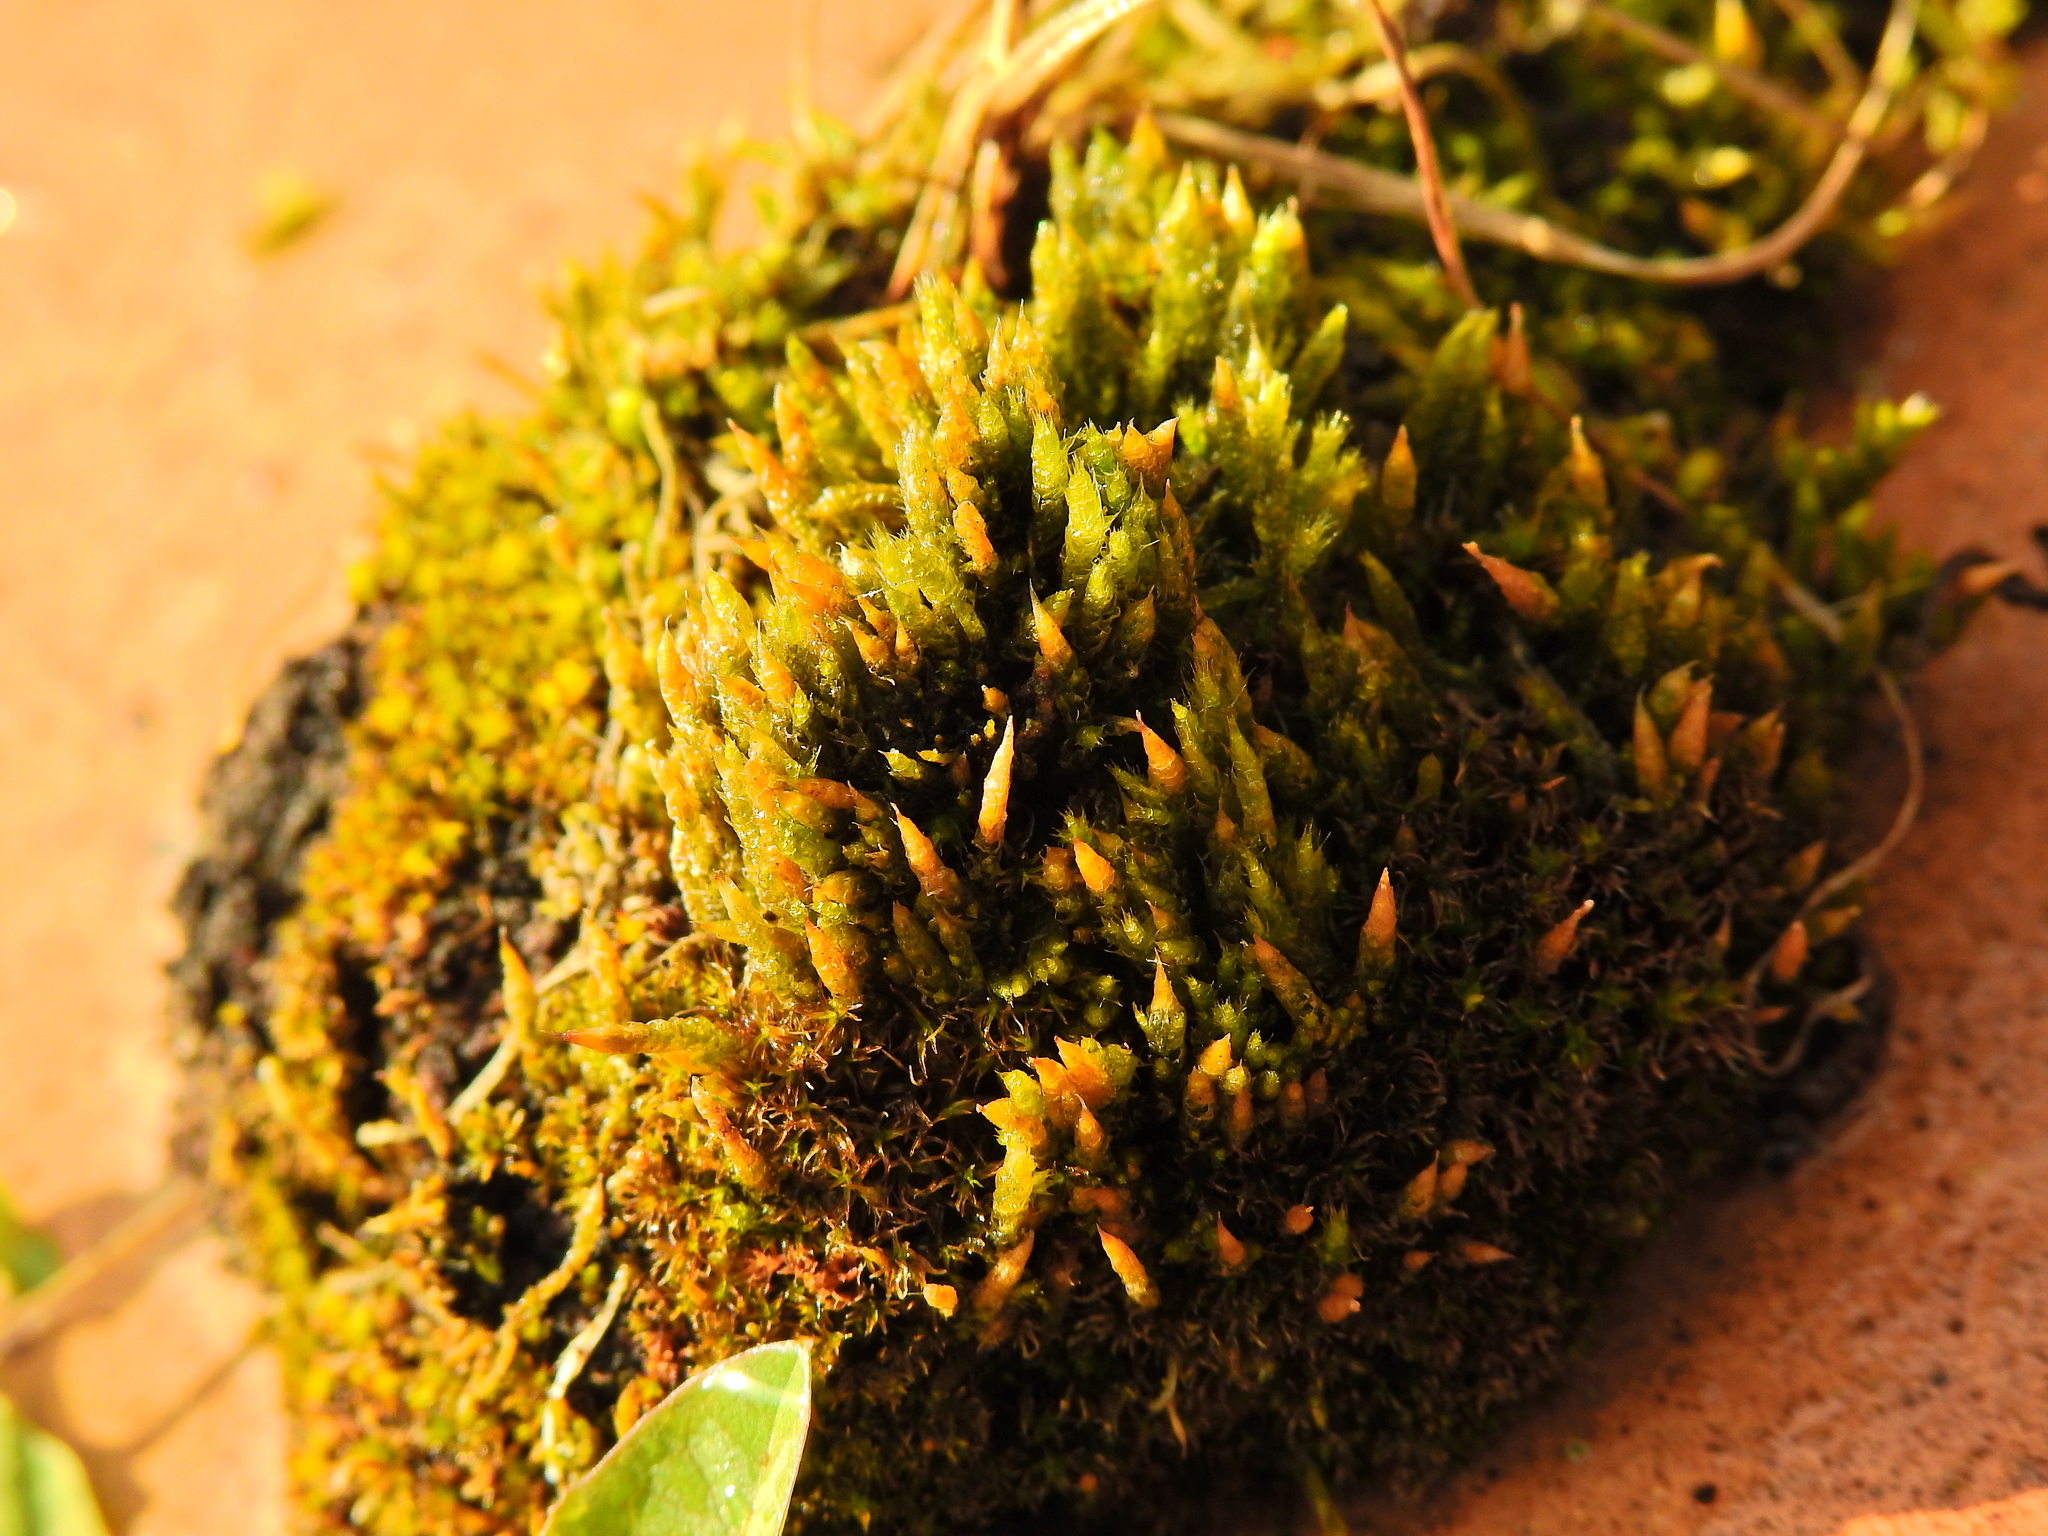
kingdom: Plantae
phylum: Bryophyta
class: Bryopsida
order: Dicranales
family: Leucobryaceae
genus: Campylopus
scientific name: Campylopus introflexus
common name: Heath star moss
